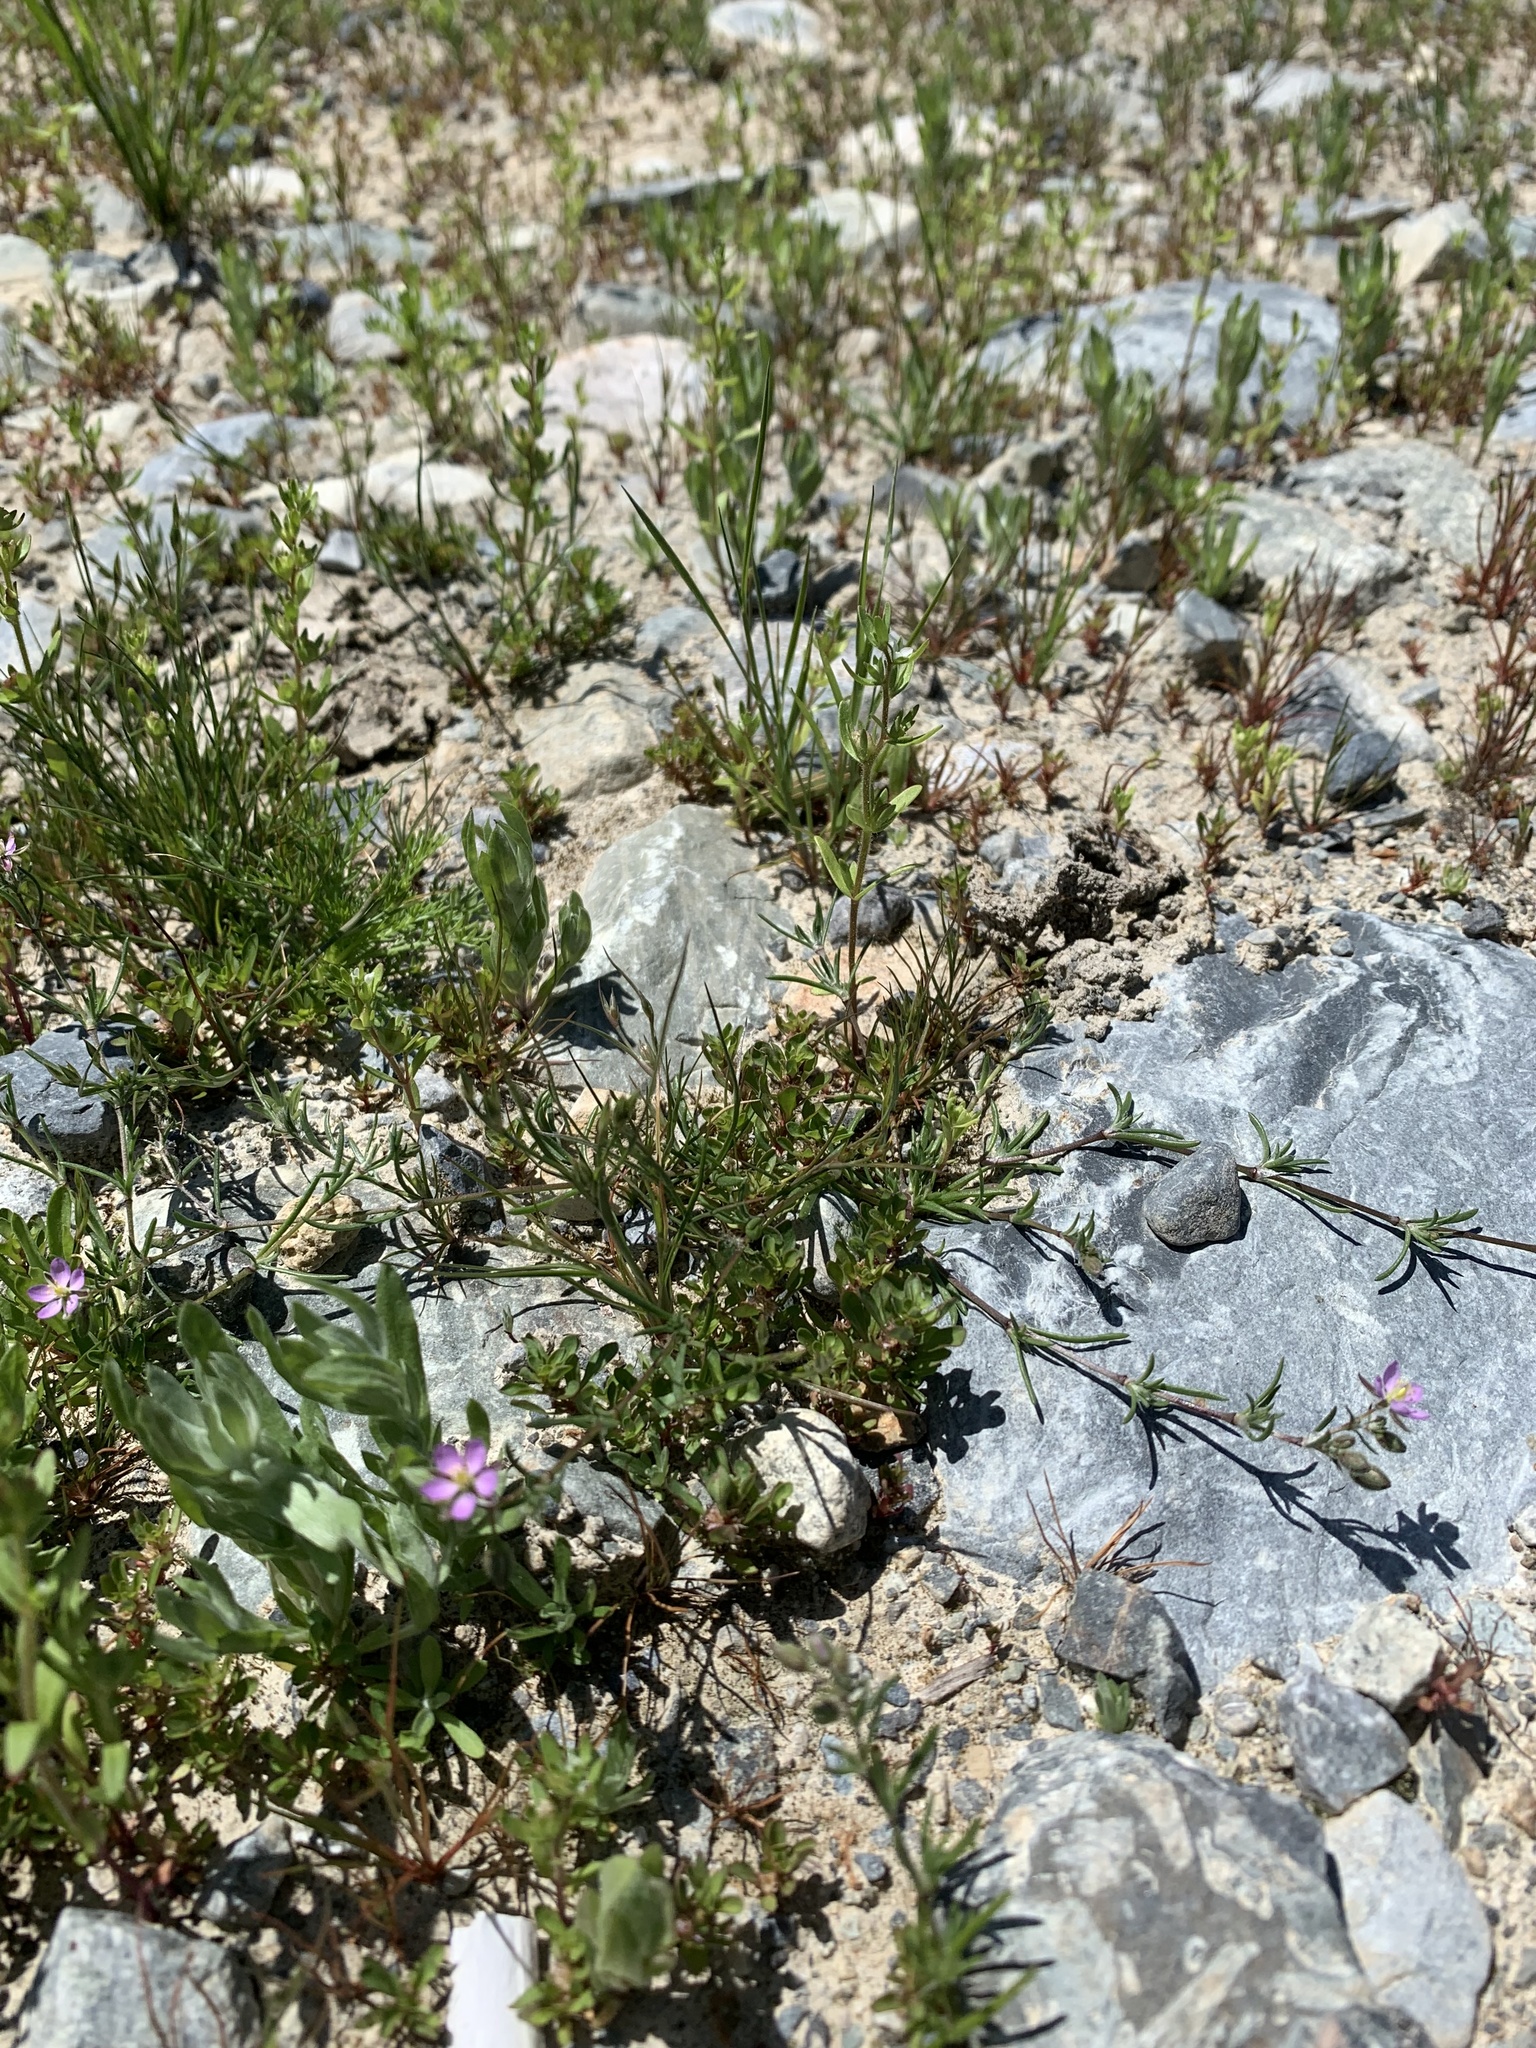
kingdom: Plantae
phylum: Tracheophyta
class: Magnoliopsida
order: Caryophyllales
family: Caryophyllaceae
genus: Spergularia
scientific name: Spergularia rubra
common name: Red sand-spurrey
